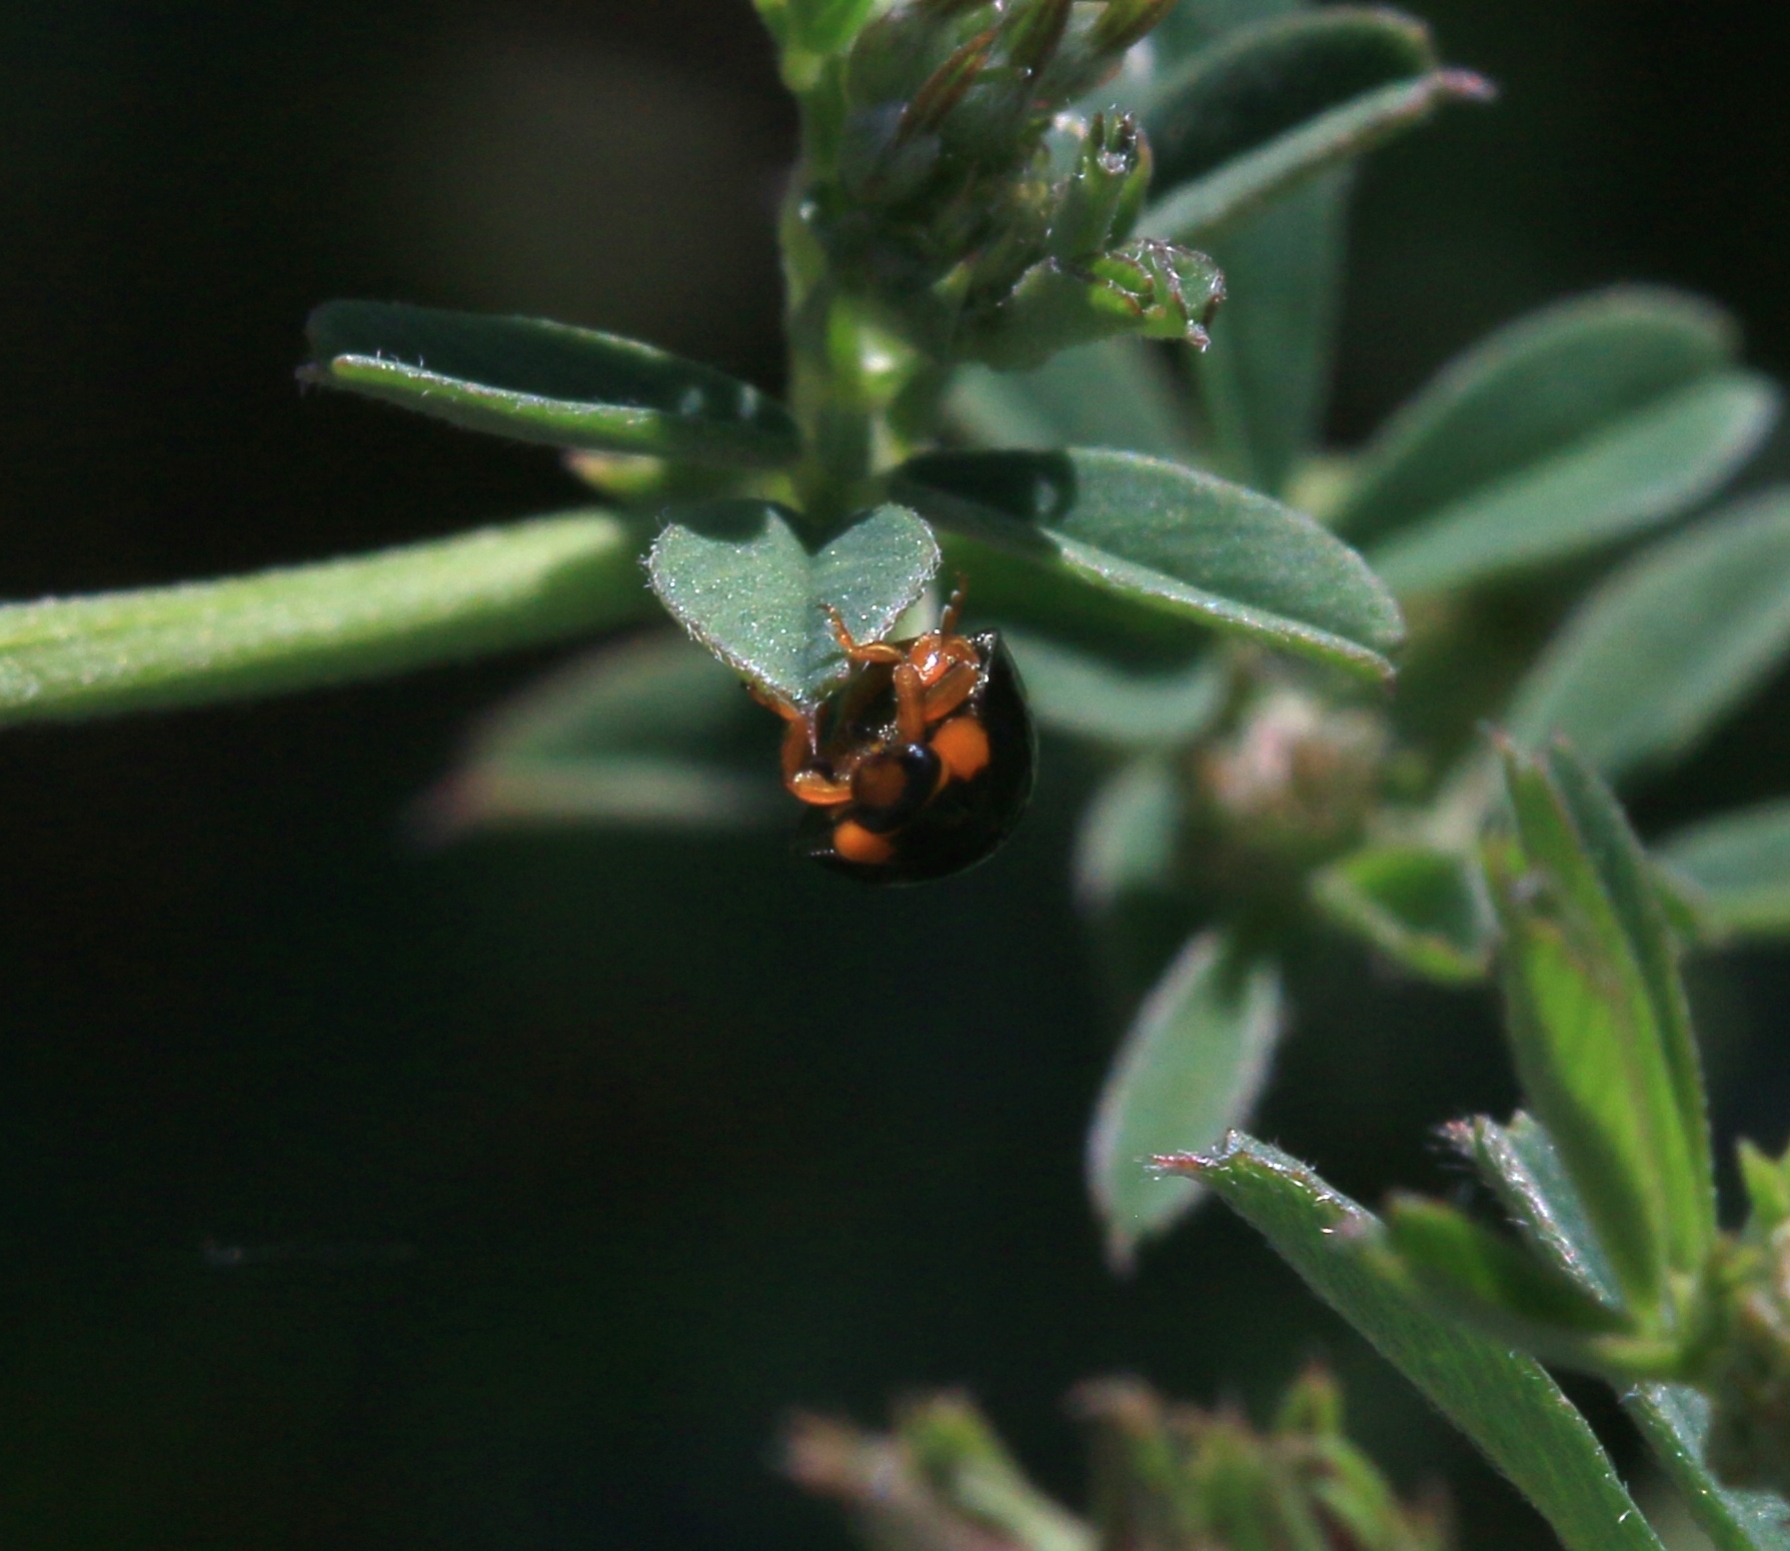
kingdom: Animalia
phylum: Arthropoda
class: Insecta
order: Coleoptera
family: Coccinellidae
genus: Parexochomus
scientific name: Parexochomus nigromaculatus
